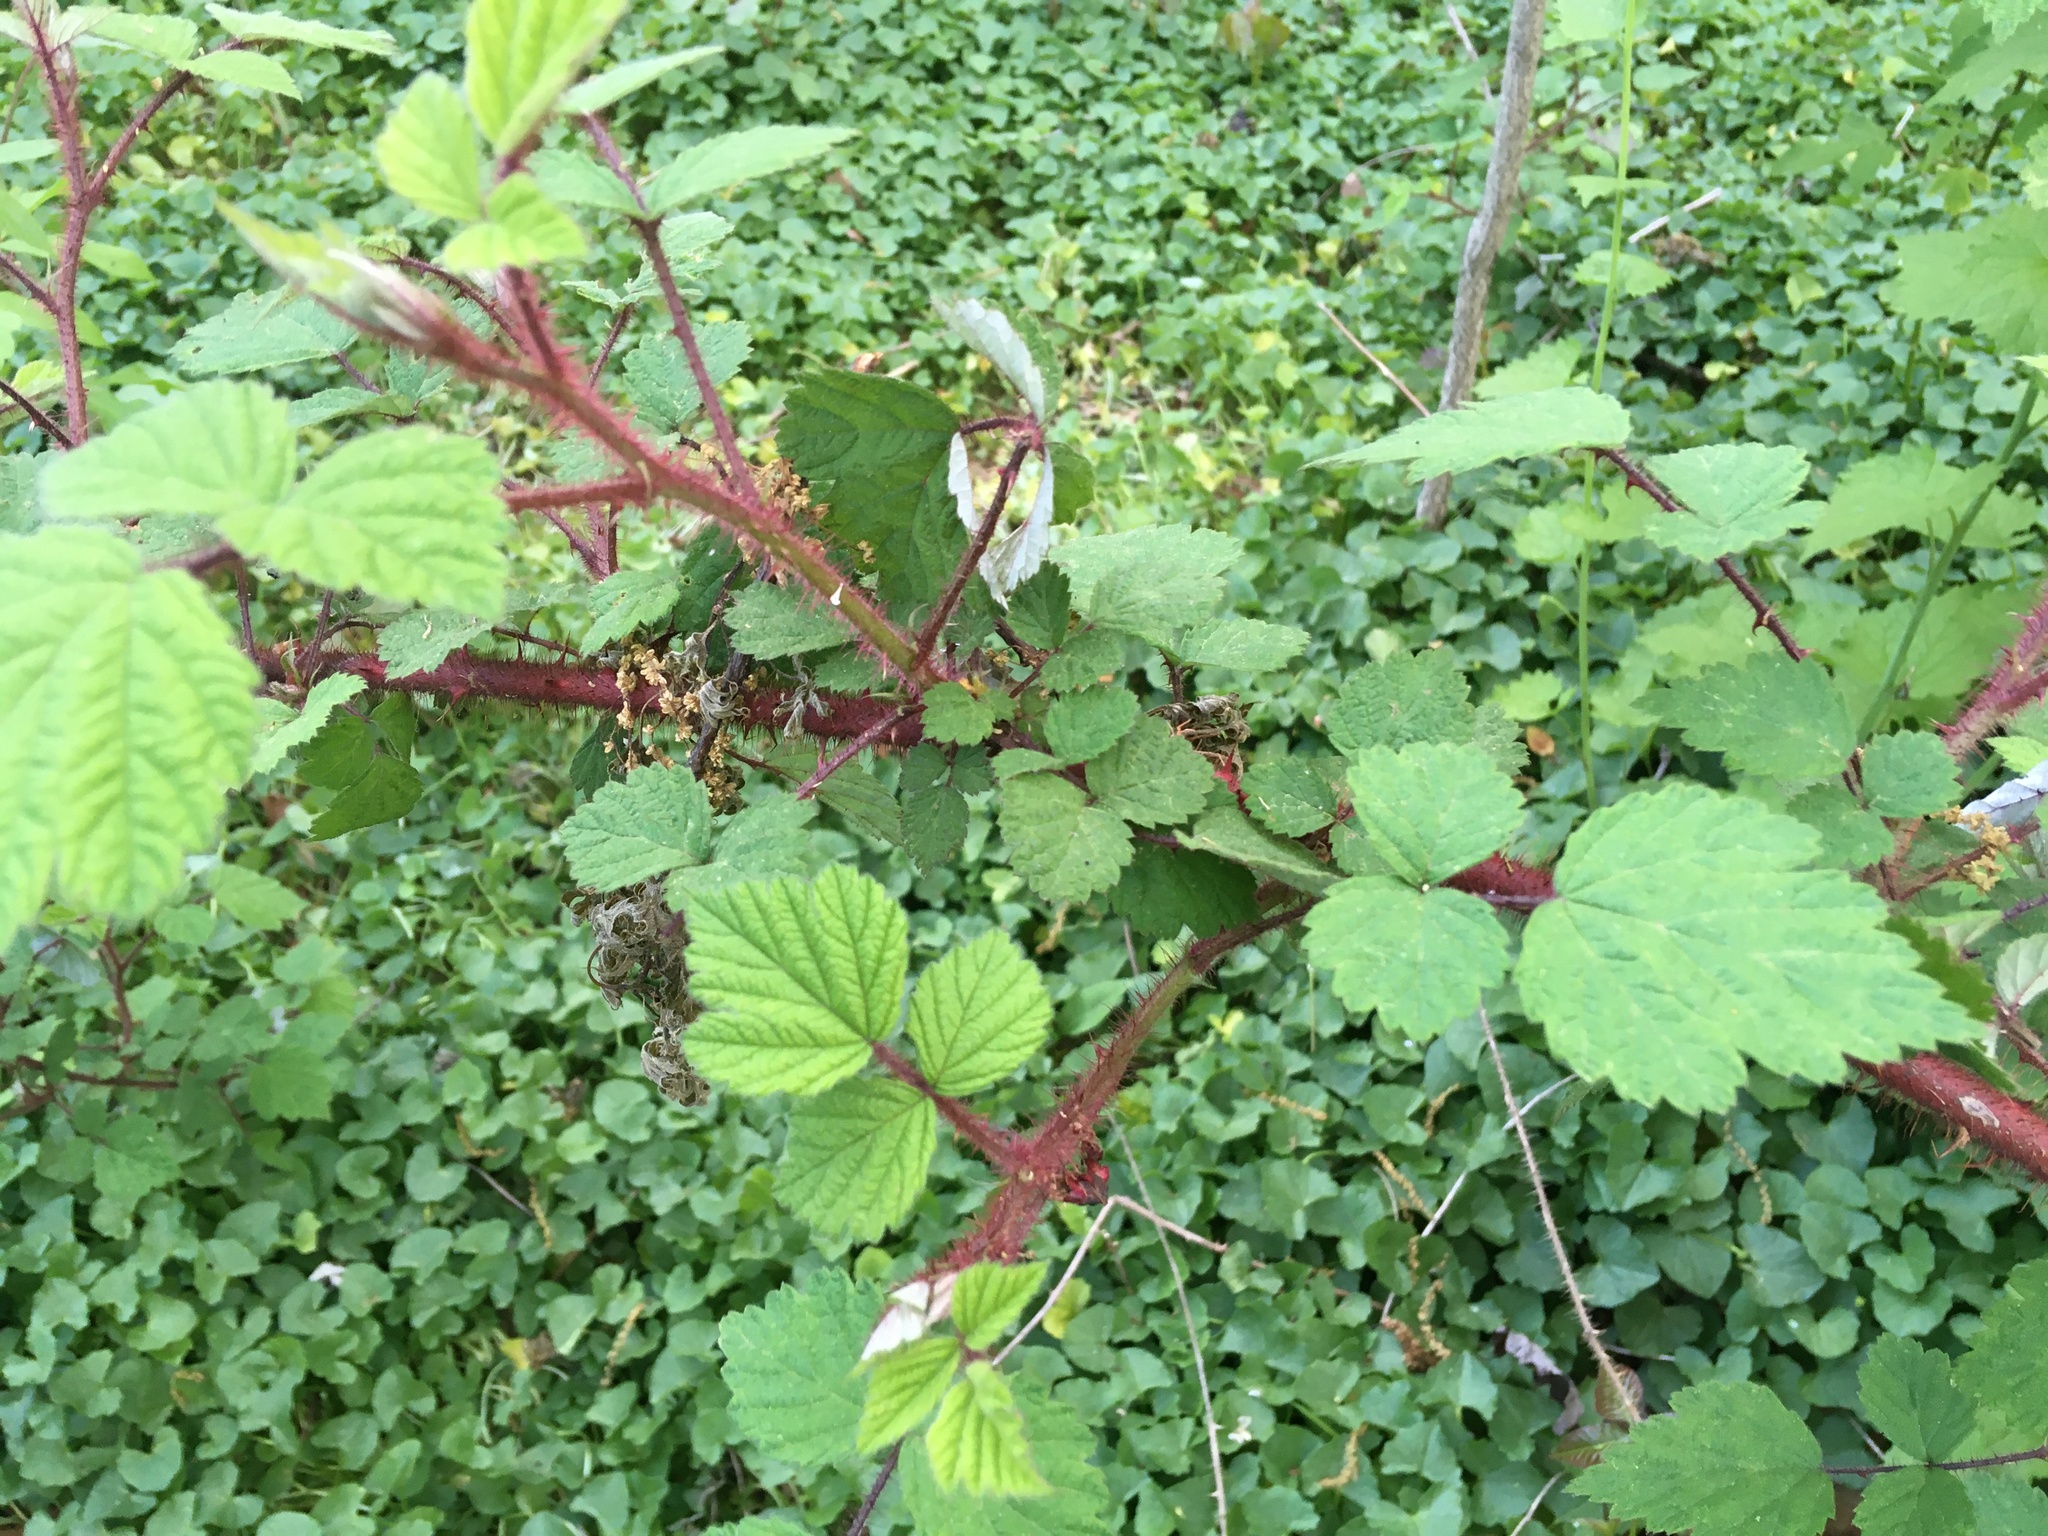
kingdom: Plantae
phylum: Tracheophyta
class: Magnoliopsida
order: Rosales
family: Rosaceae
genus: Rubus
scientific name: Rubus phoenicolasius
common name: Japanese wineberry
